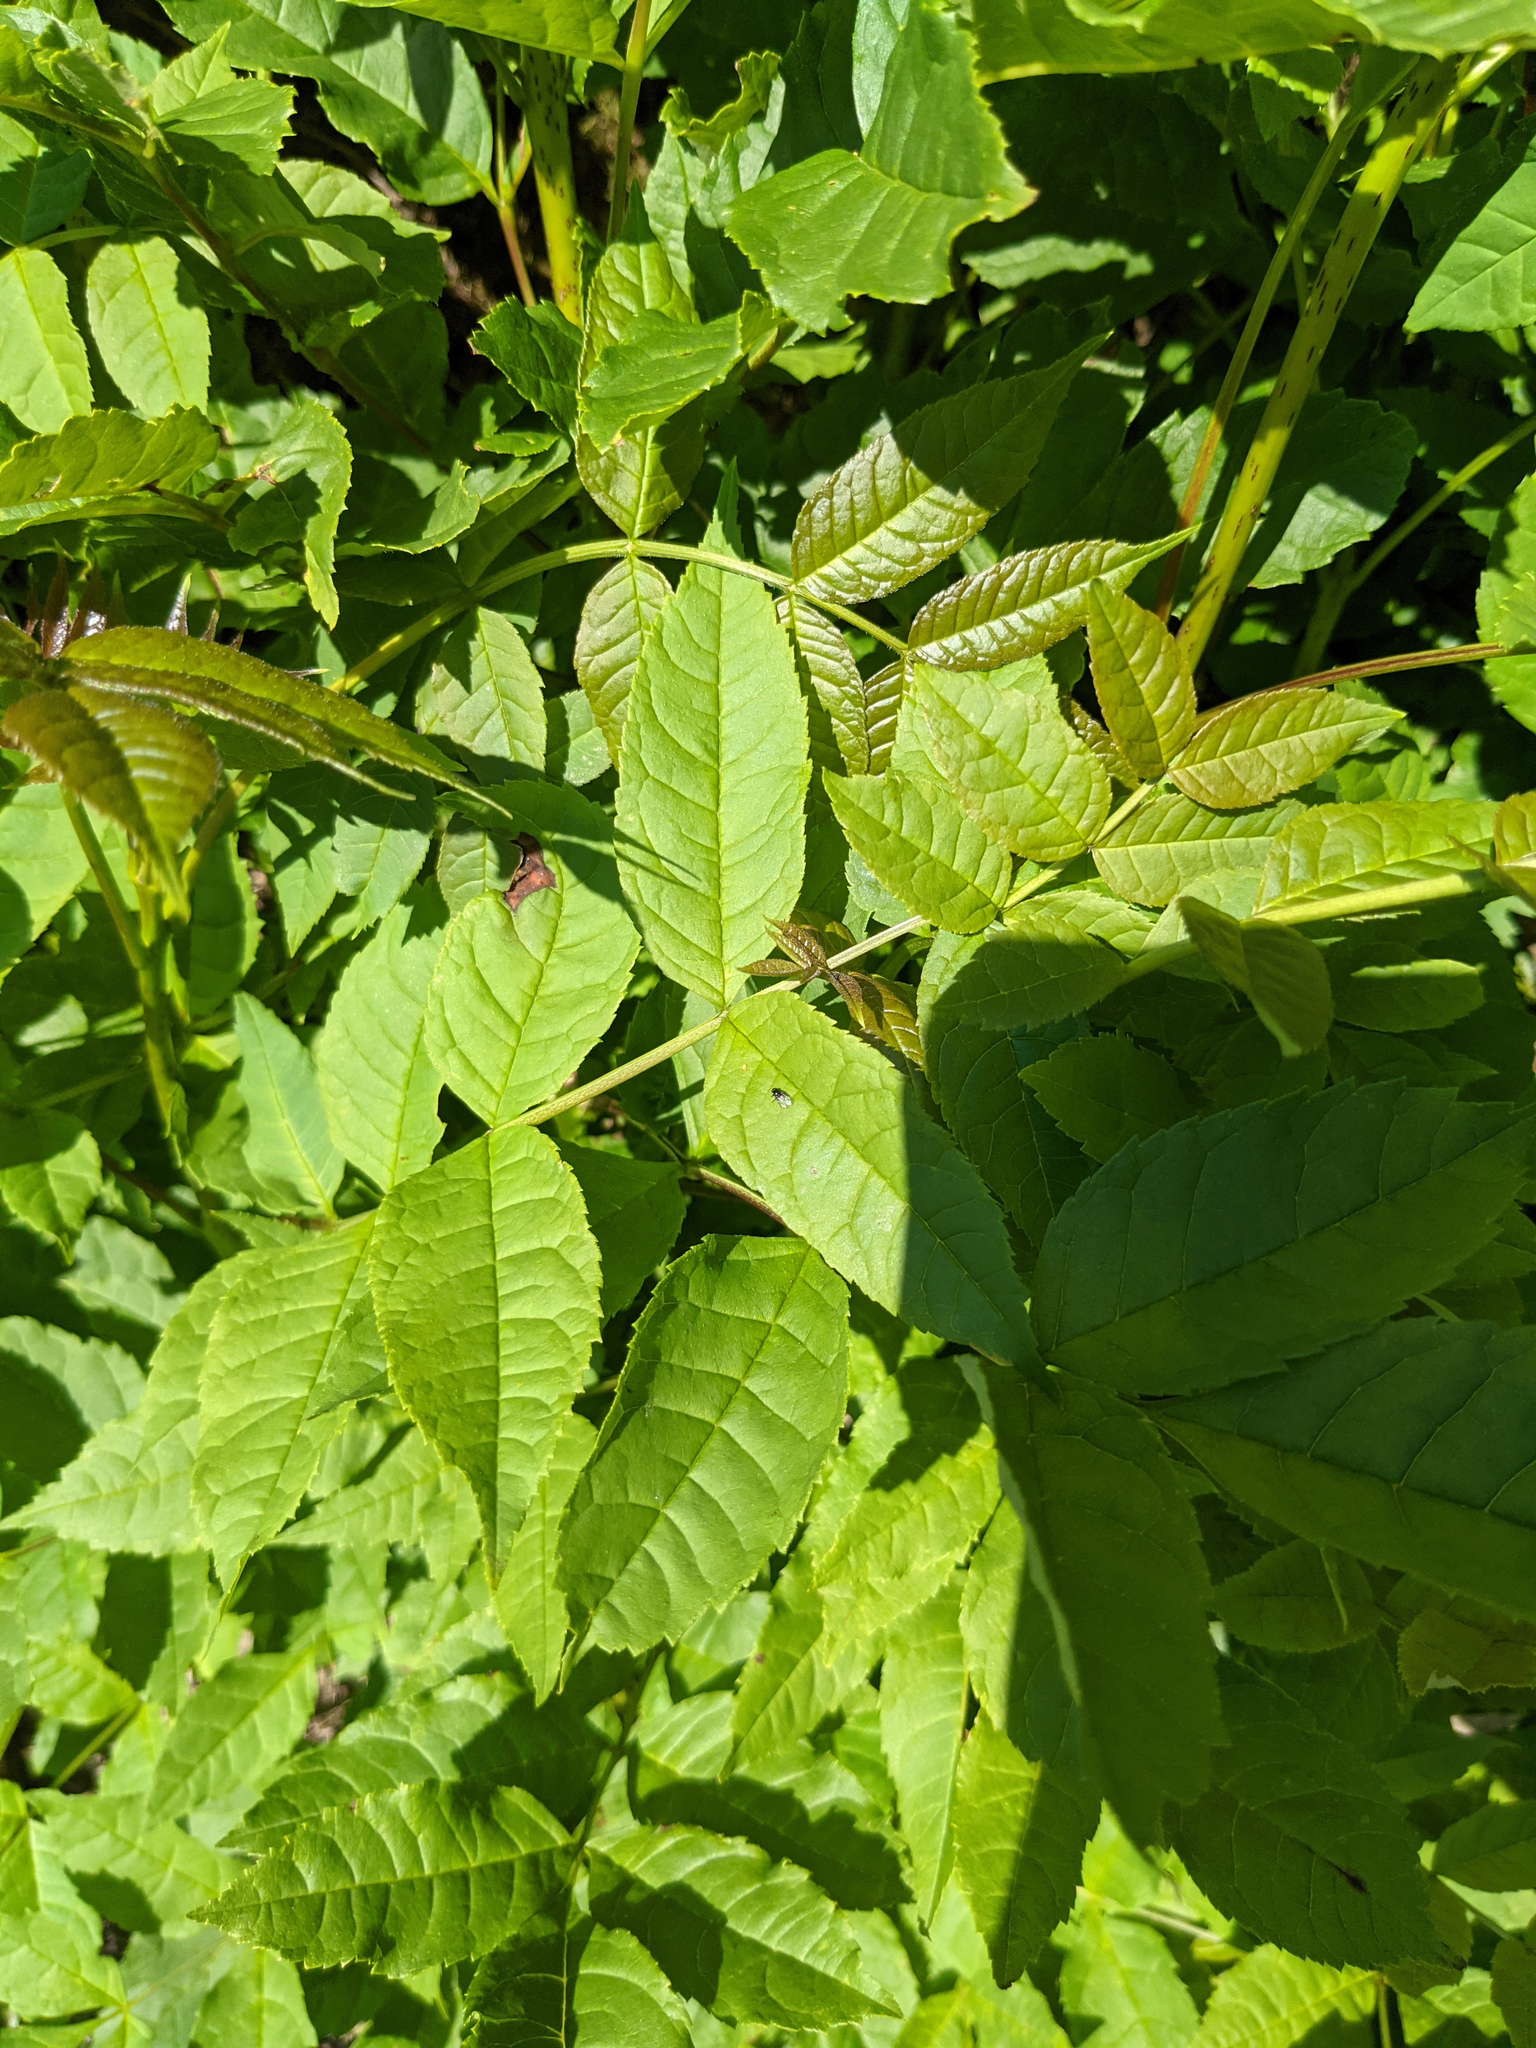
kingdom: Plantae
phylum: Tracheophyta
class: Magnoliopsida
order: Lamiales
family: Oleaceae
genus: Fraxinus
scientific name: Fraxinus excelsior
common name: European ash
